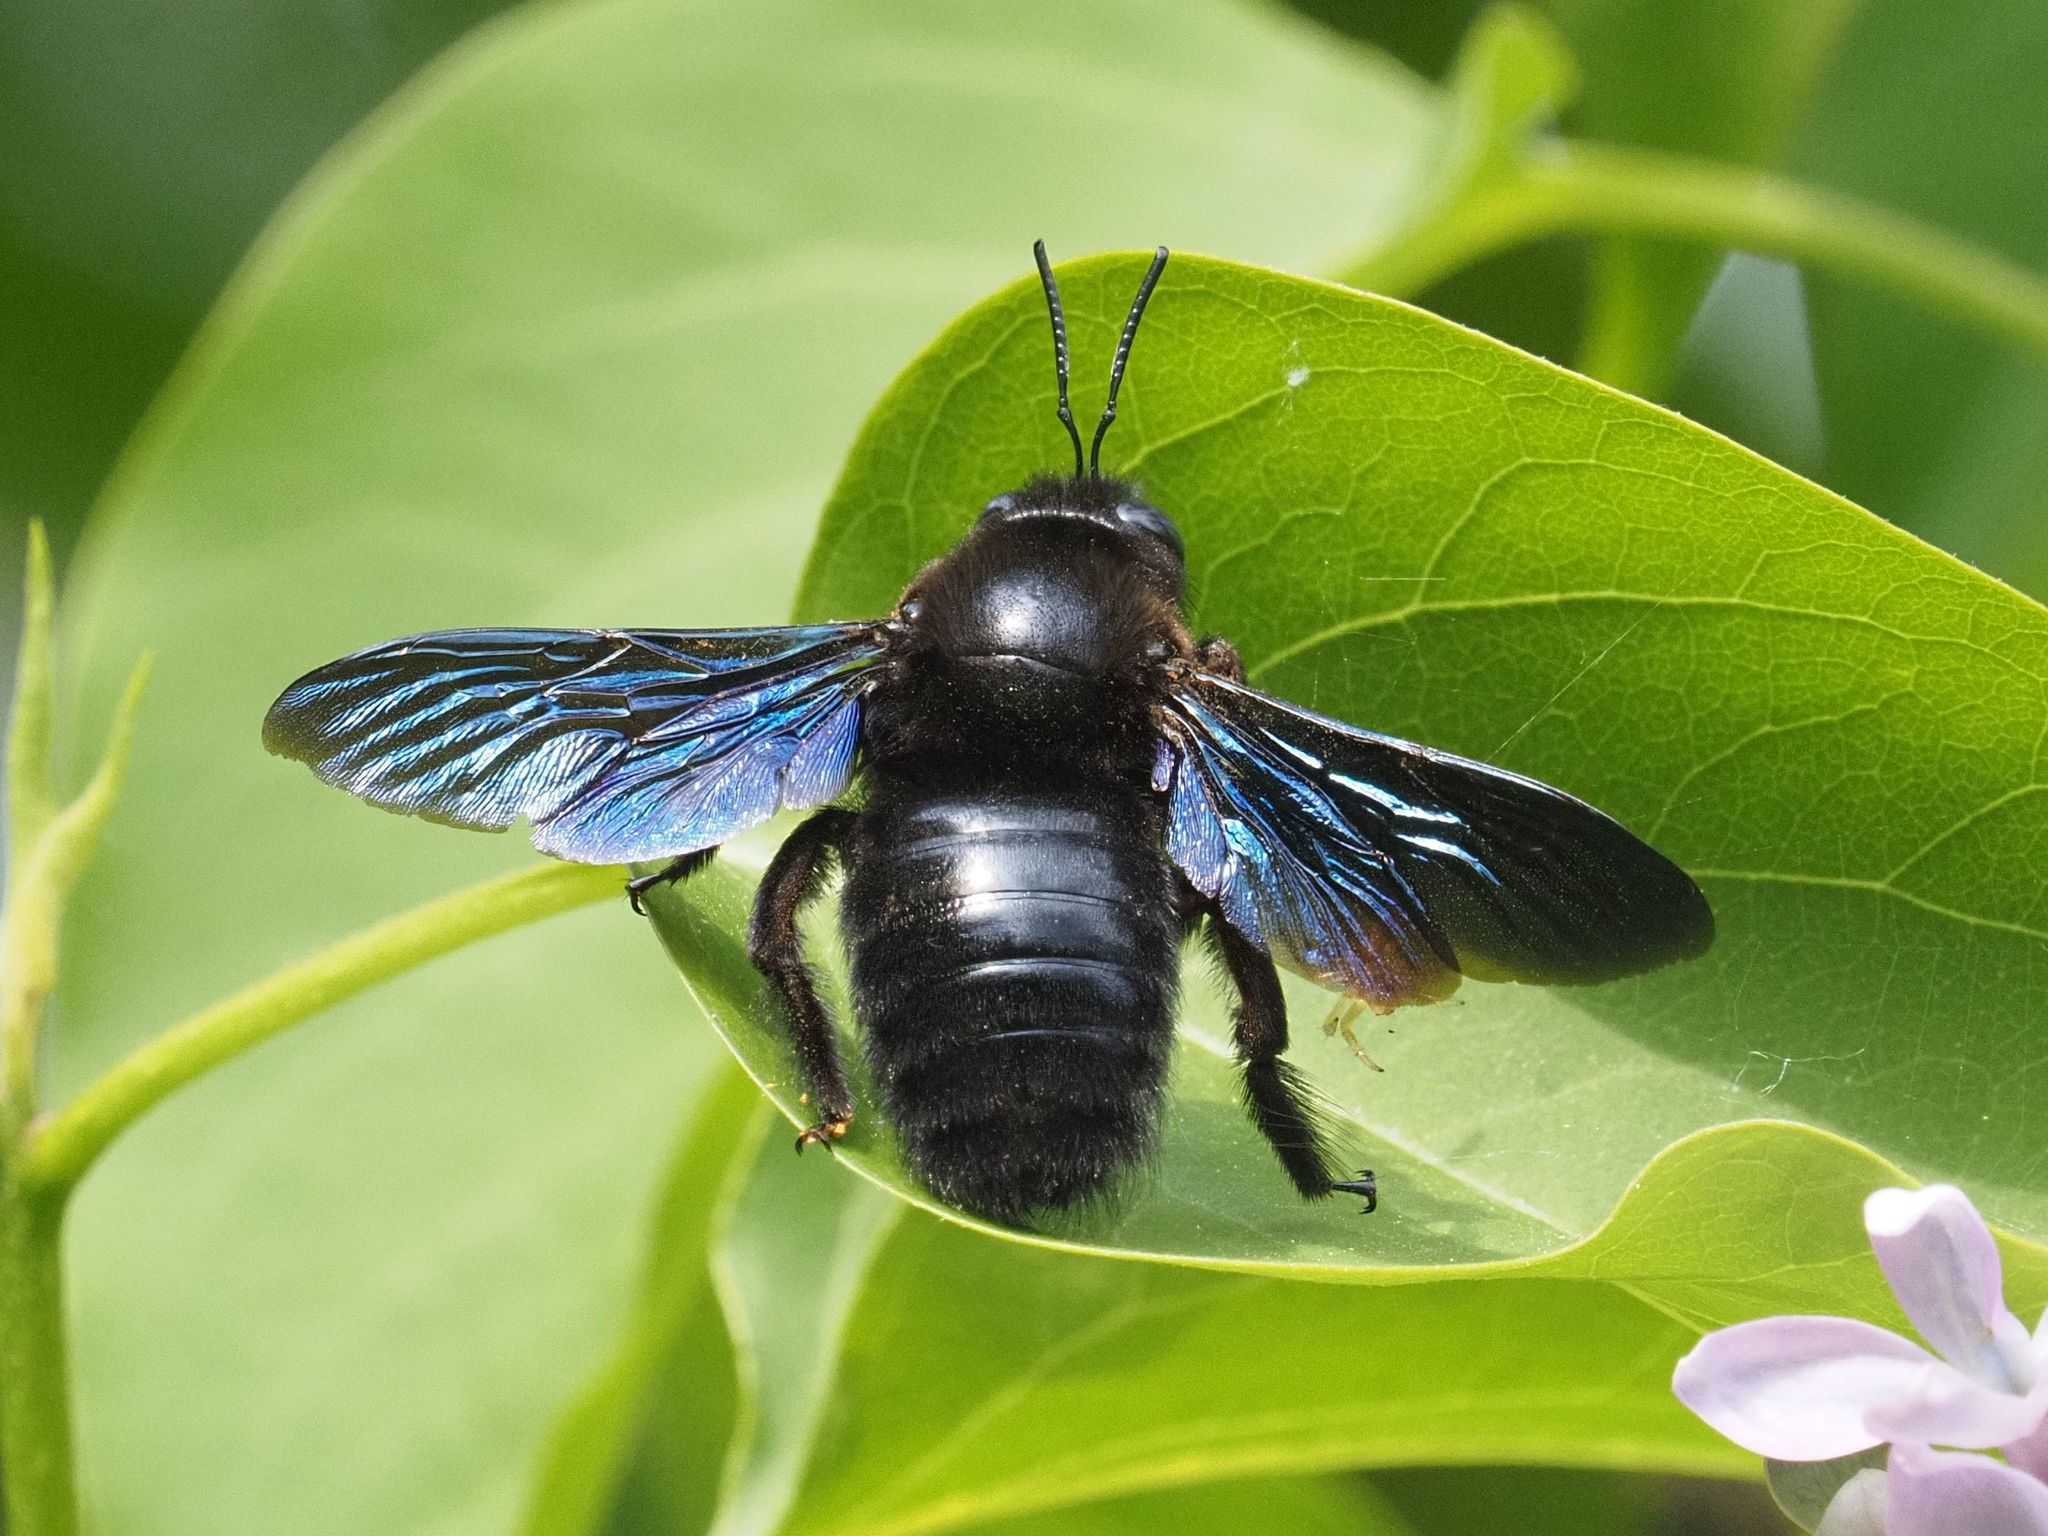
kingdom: Animalia
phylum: Arthropoda
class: Insecta
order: Hymenoptera
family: Apidae
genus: Xylocopa
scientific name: Xylocopa valga
